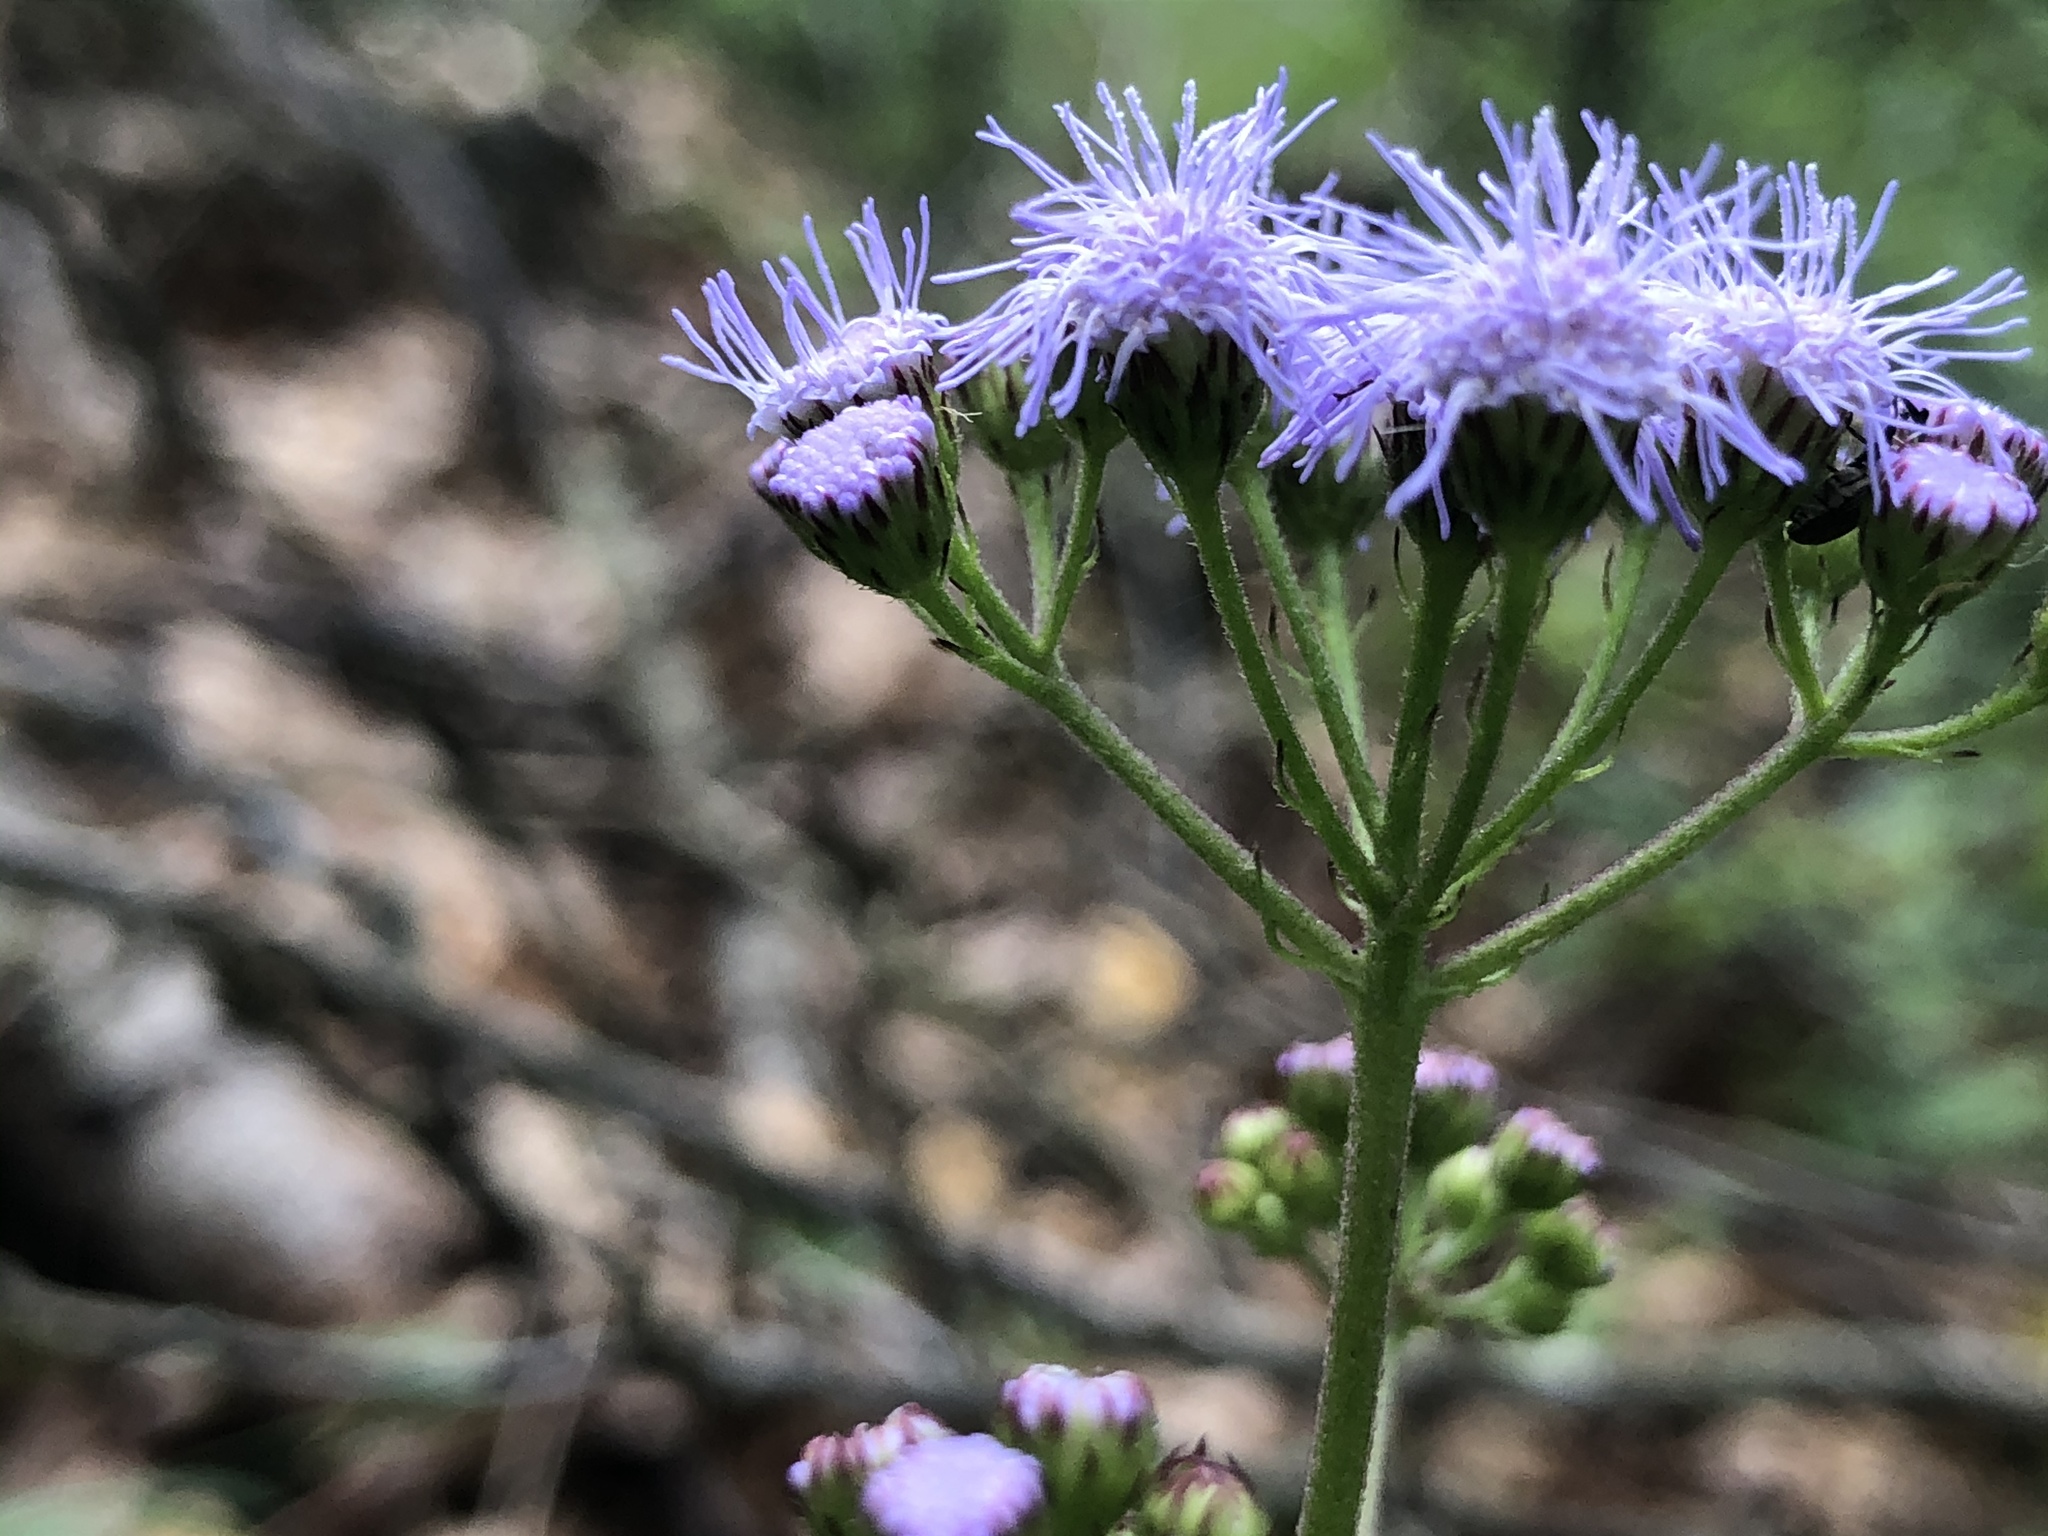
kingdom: Plantae
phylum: Tracheophyta
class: Magnoliopsida
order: Asterales
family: Asteraceae
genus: Conoclinium
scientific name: Conoclinium coelestinum
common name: Blue mistflower
